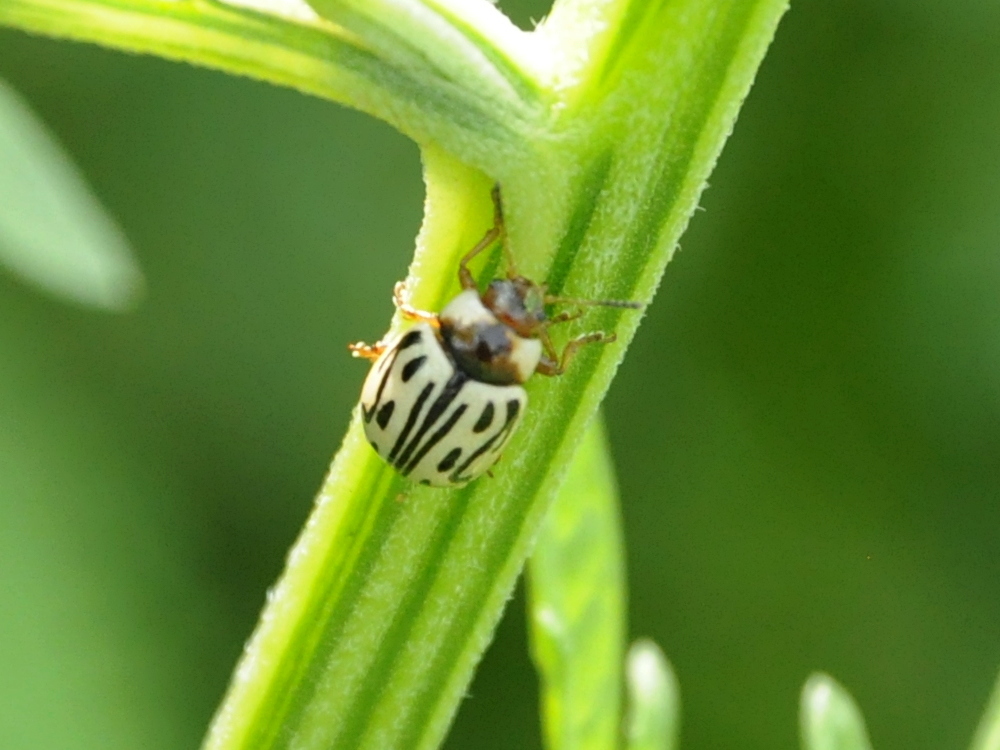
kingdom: Animalia
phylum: Arthropoda
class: Insecta
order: Coleoptera
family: Chrysomelidae
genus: Calligrapha
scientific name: Calligrapha
